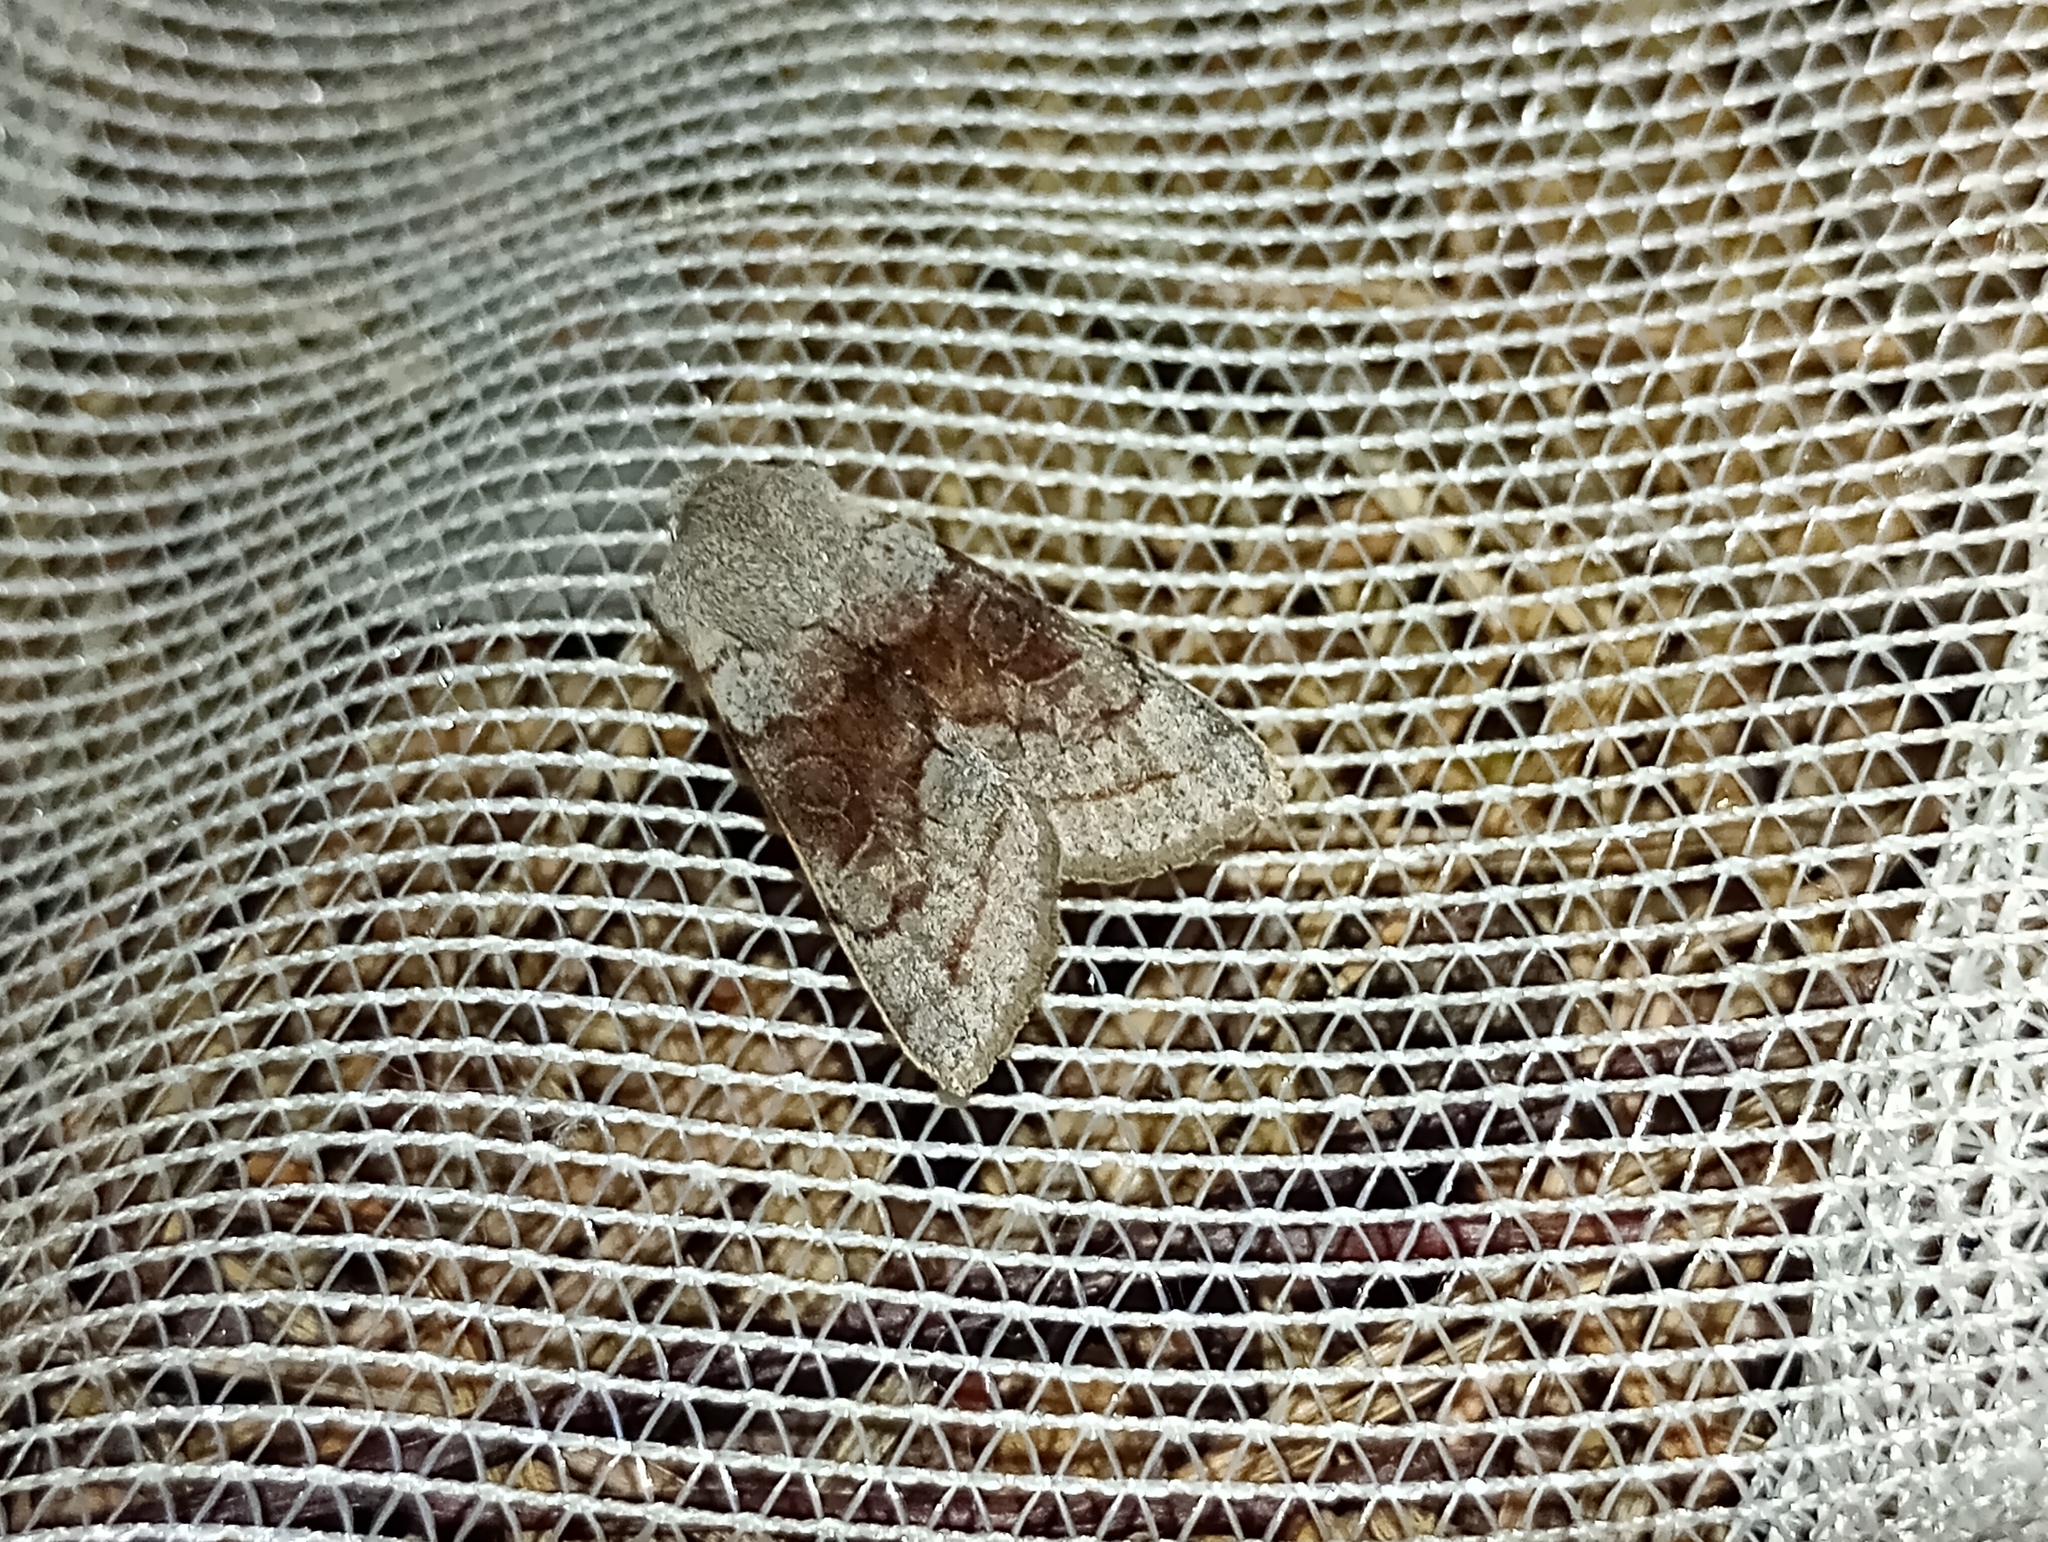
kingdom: Animalia
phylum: Arthropoda
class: Insecta
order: Lepidoptera
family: Noctuidae
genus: Orthosia
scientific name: Orthosia opima
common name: Northern drab
